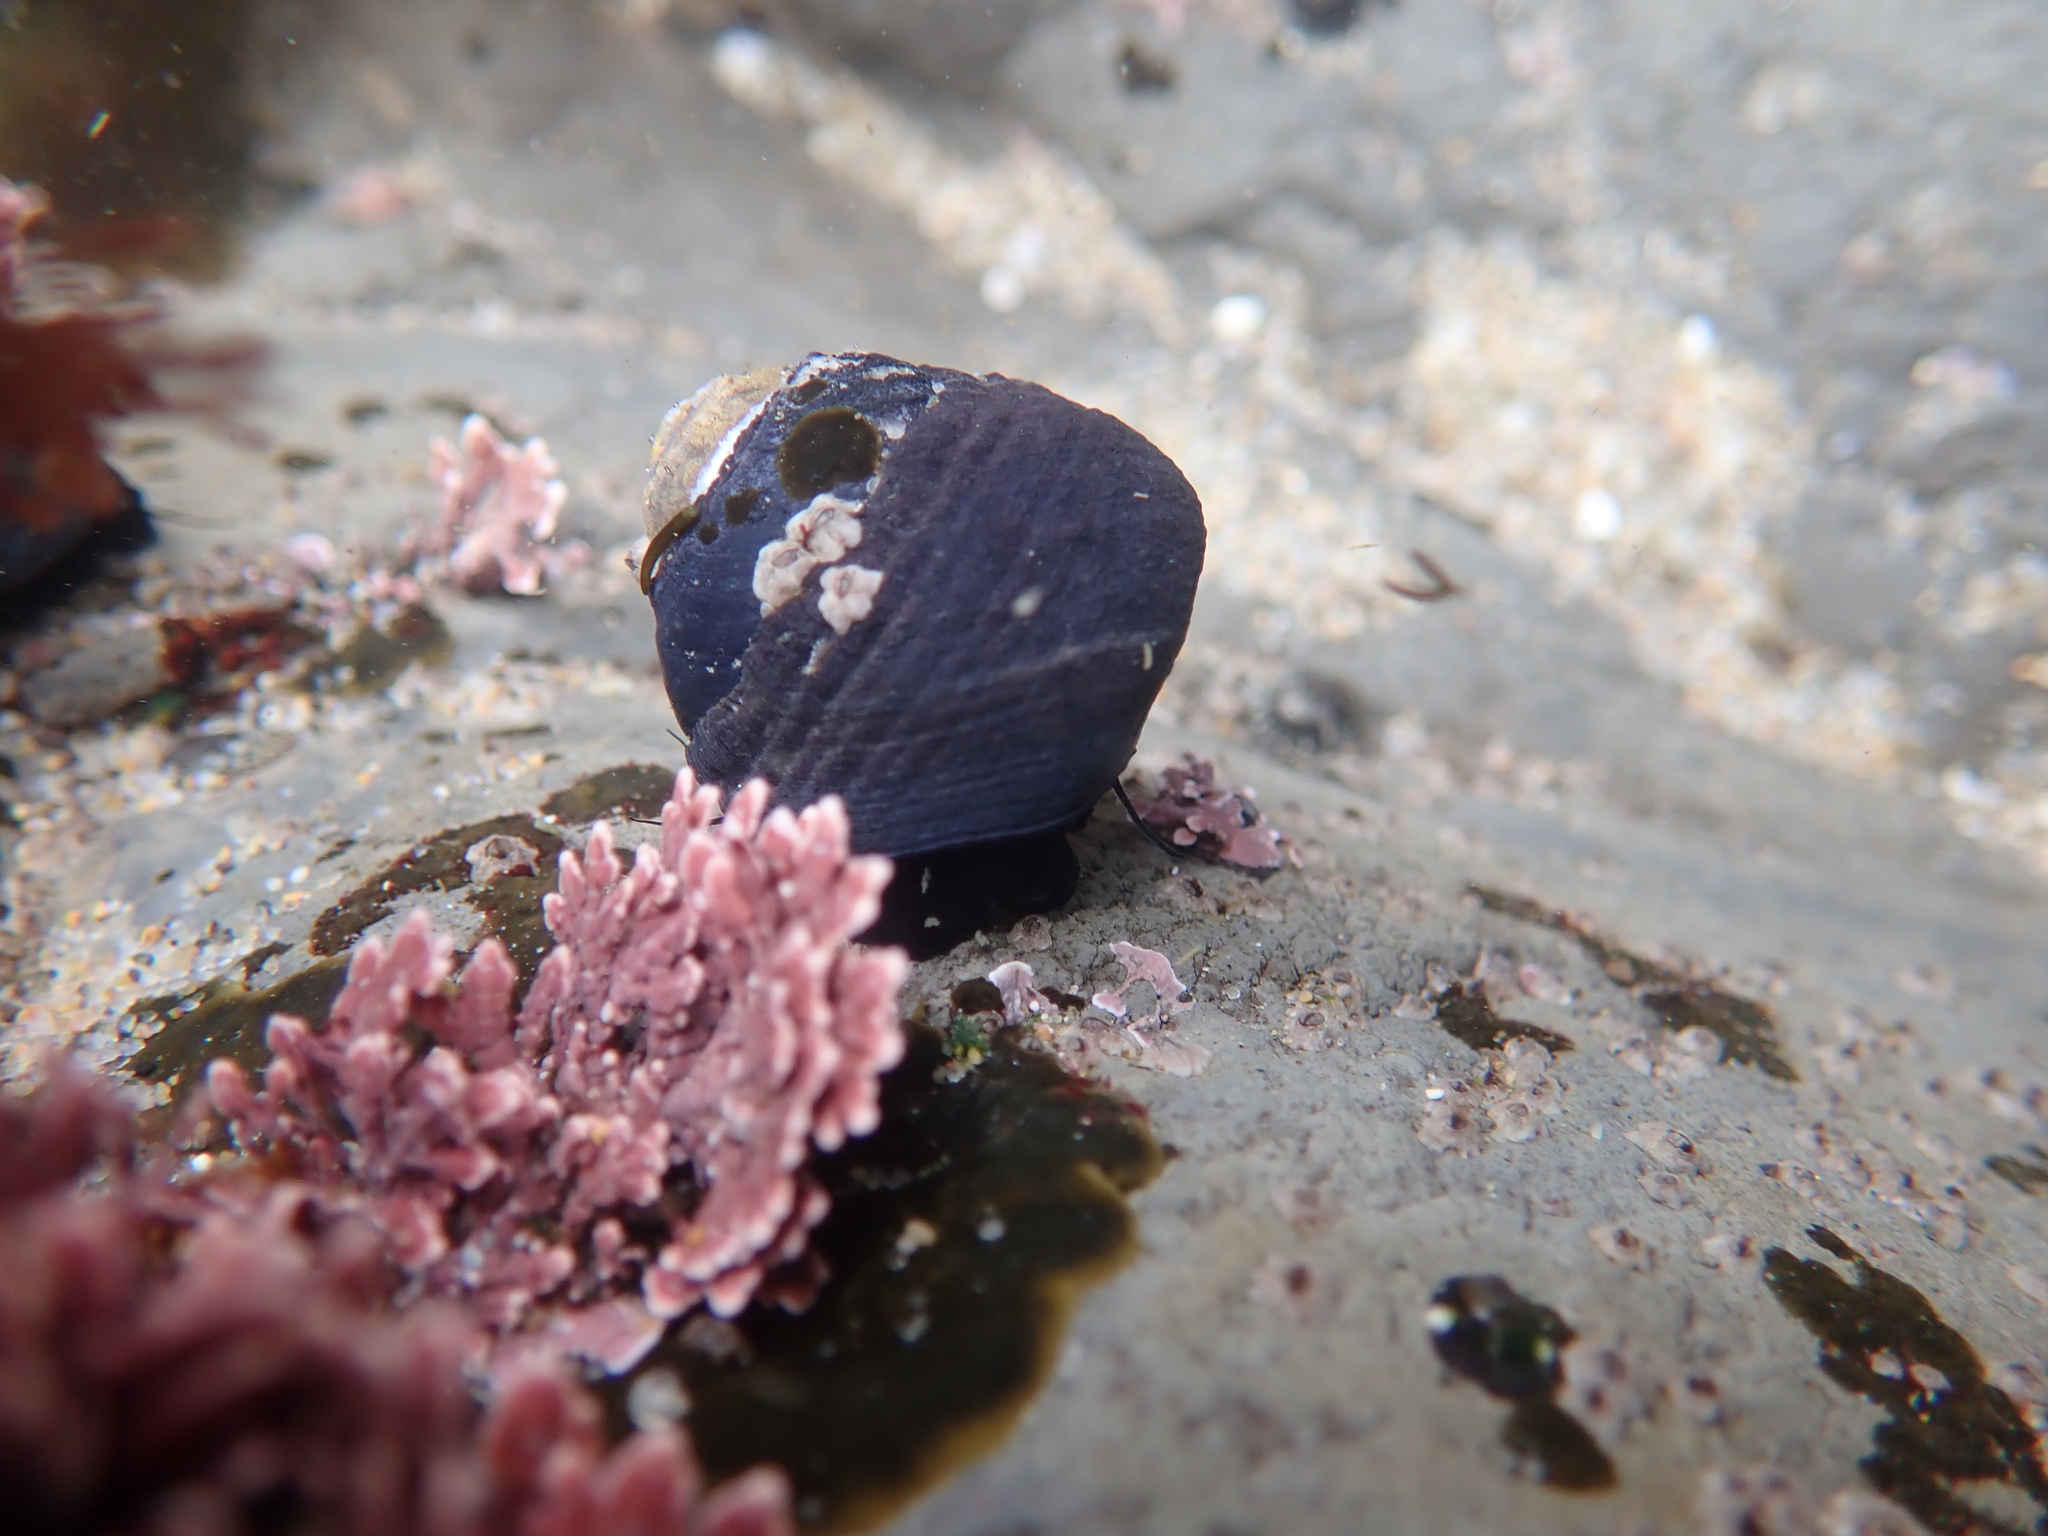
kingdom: Animalia
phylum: Mollusca
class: Gastropoda
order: Trochida
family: Tegulidae
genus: Tegula
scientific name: Tegula funebralis
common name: Black tegula
